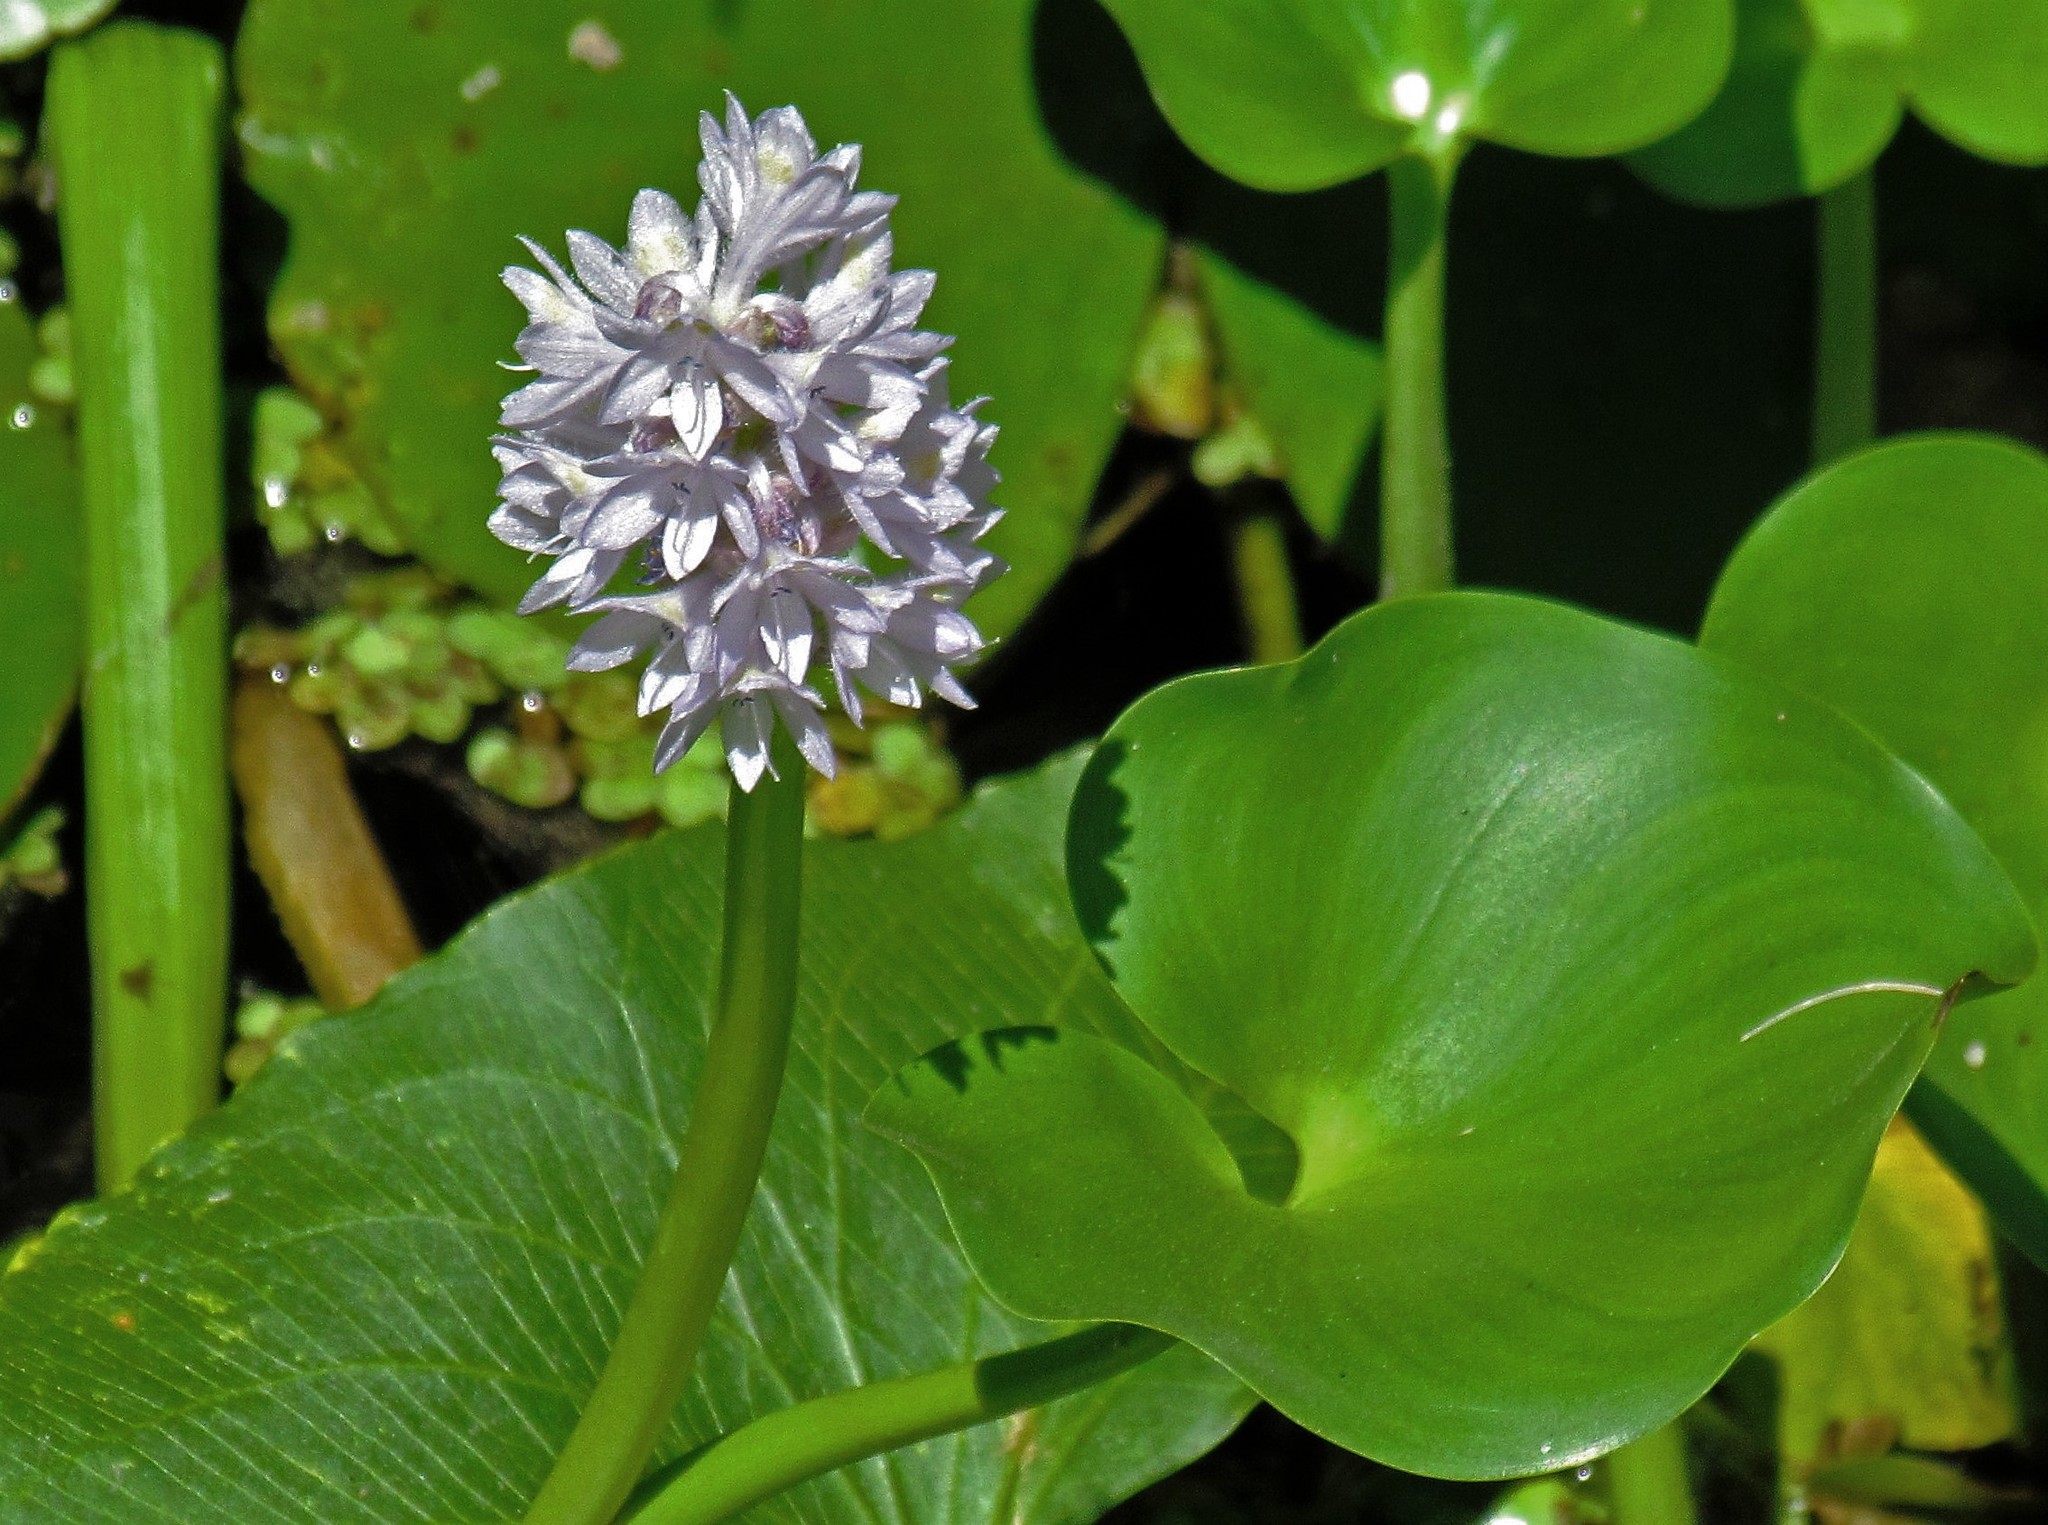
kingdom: Plantae
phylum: Tracheophyta
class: Liliopsida
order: Commelinales
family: Pontederiaceae
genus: Pontederia
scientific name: Pontederia rotundifolia
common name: Tropical pickerel-weed
